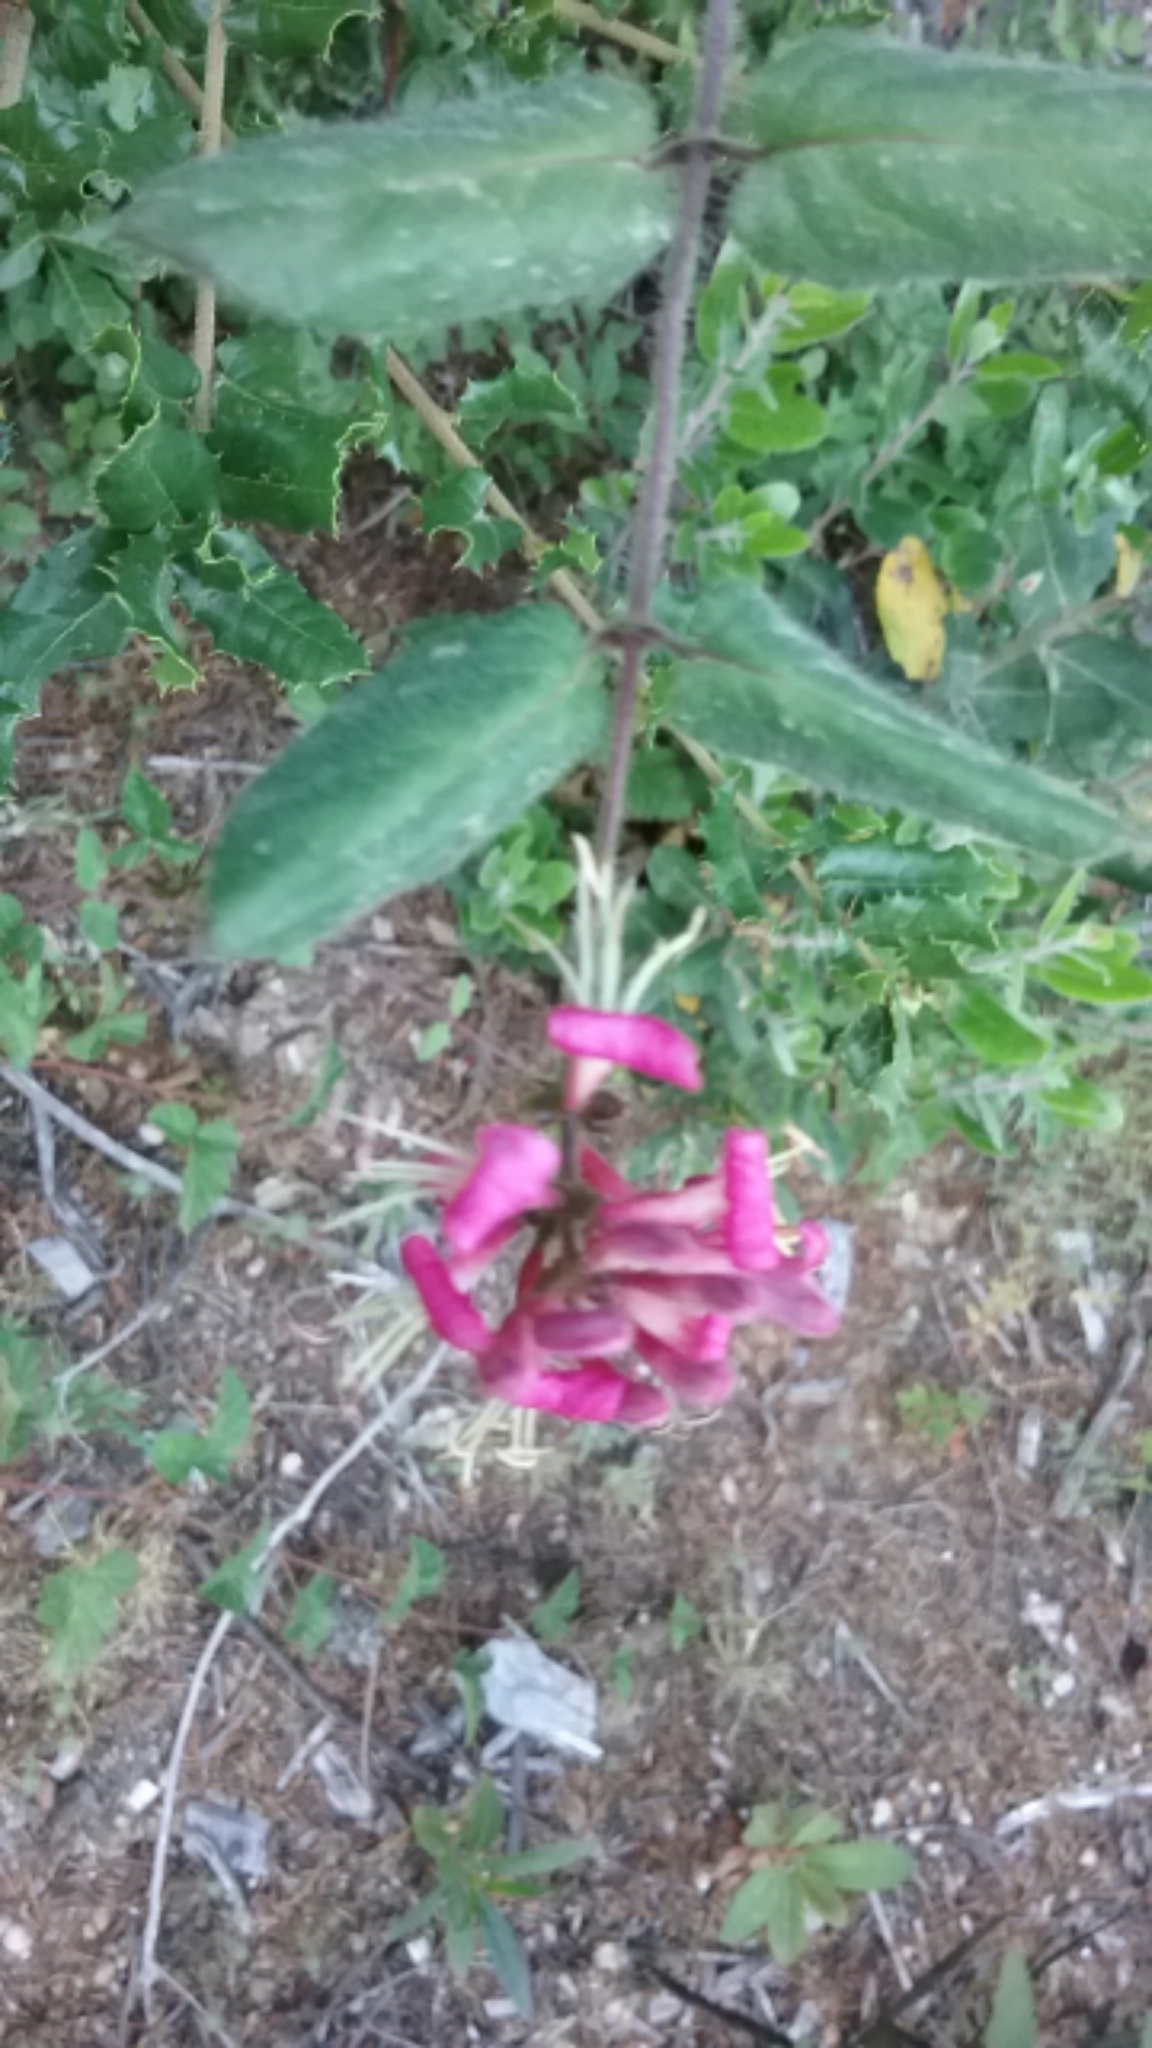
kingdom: Plantae
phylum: Tracheophyta
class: Magnoliopsida
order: Dipsacales
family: Caprifoliaceae
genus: Lonicera
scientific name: Lonicera hispidula
